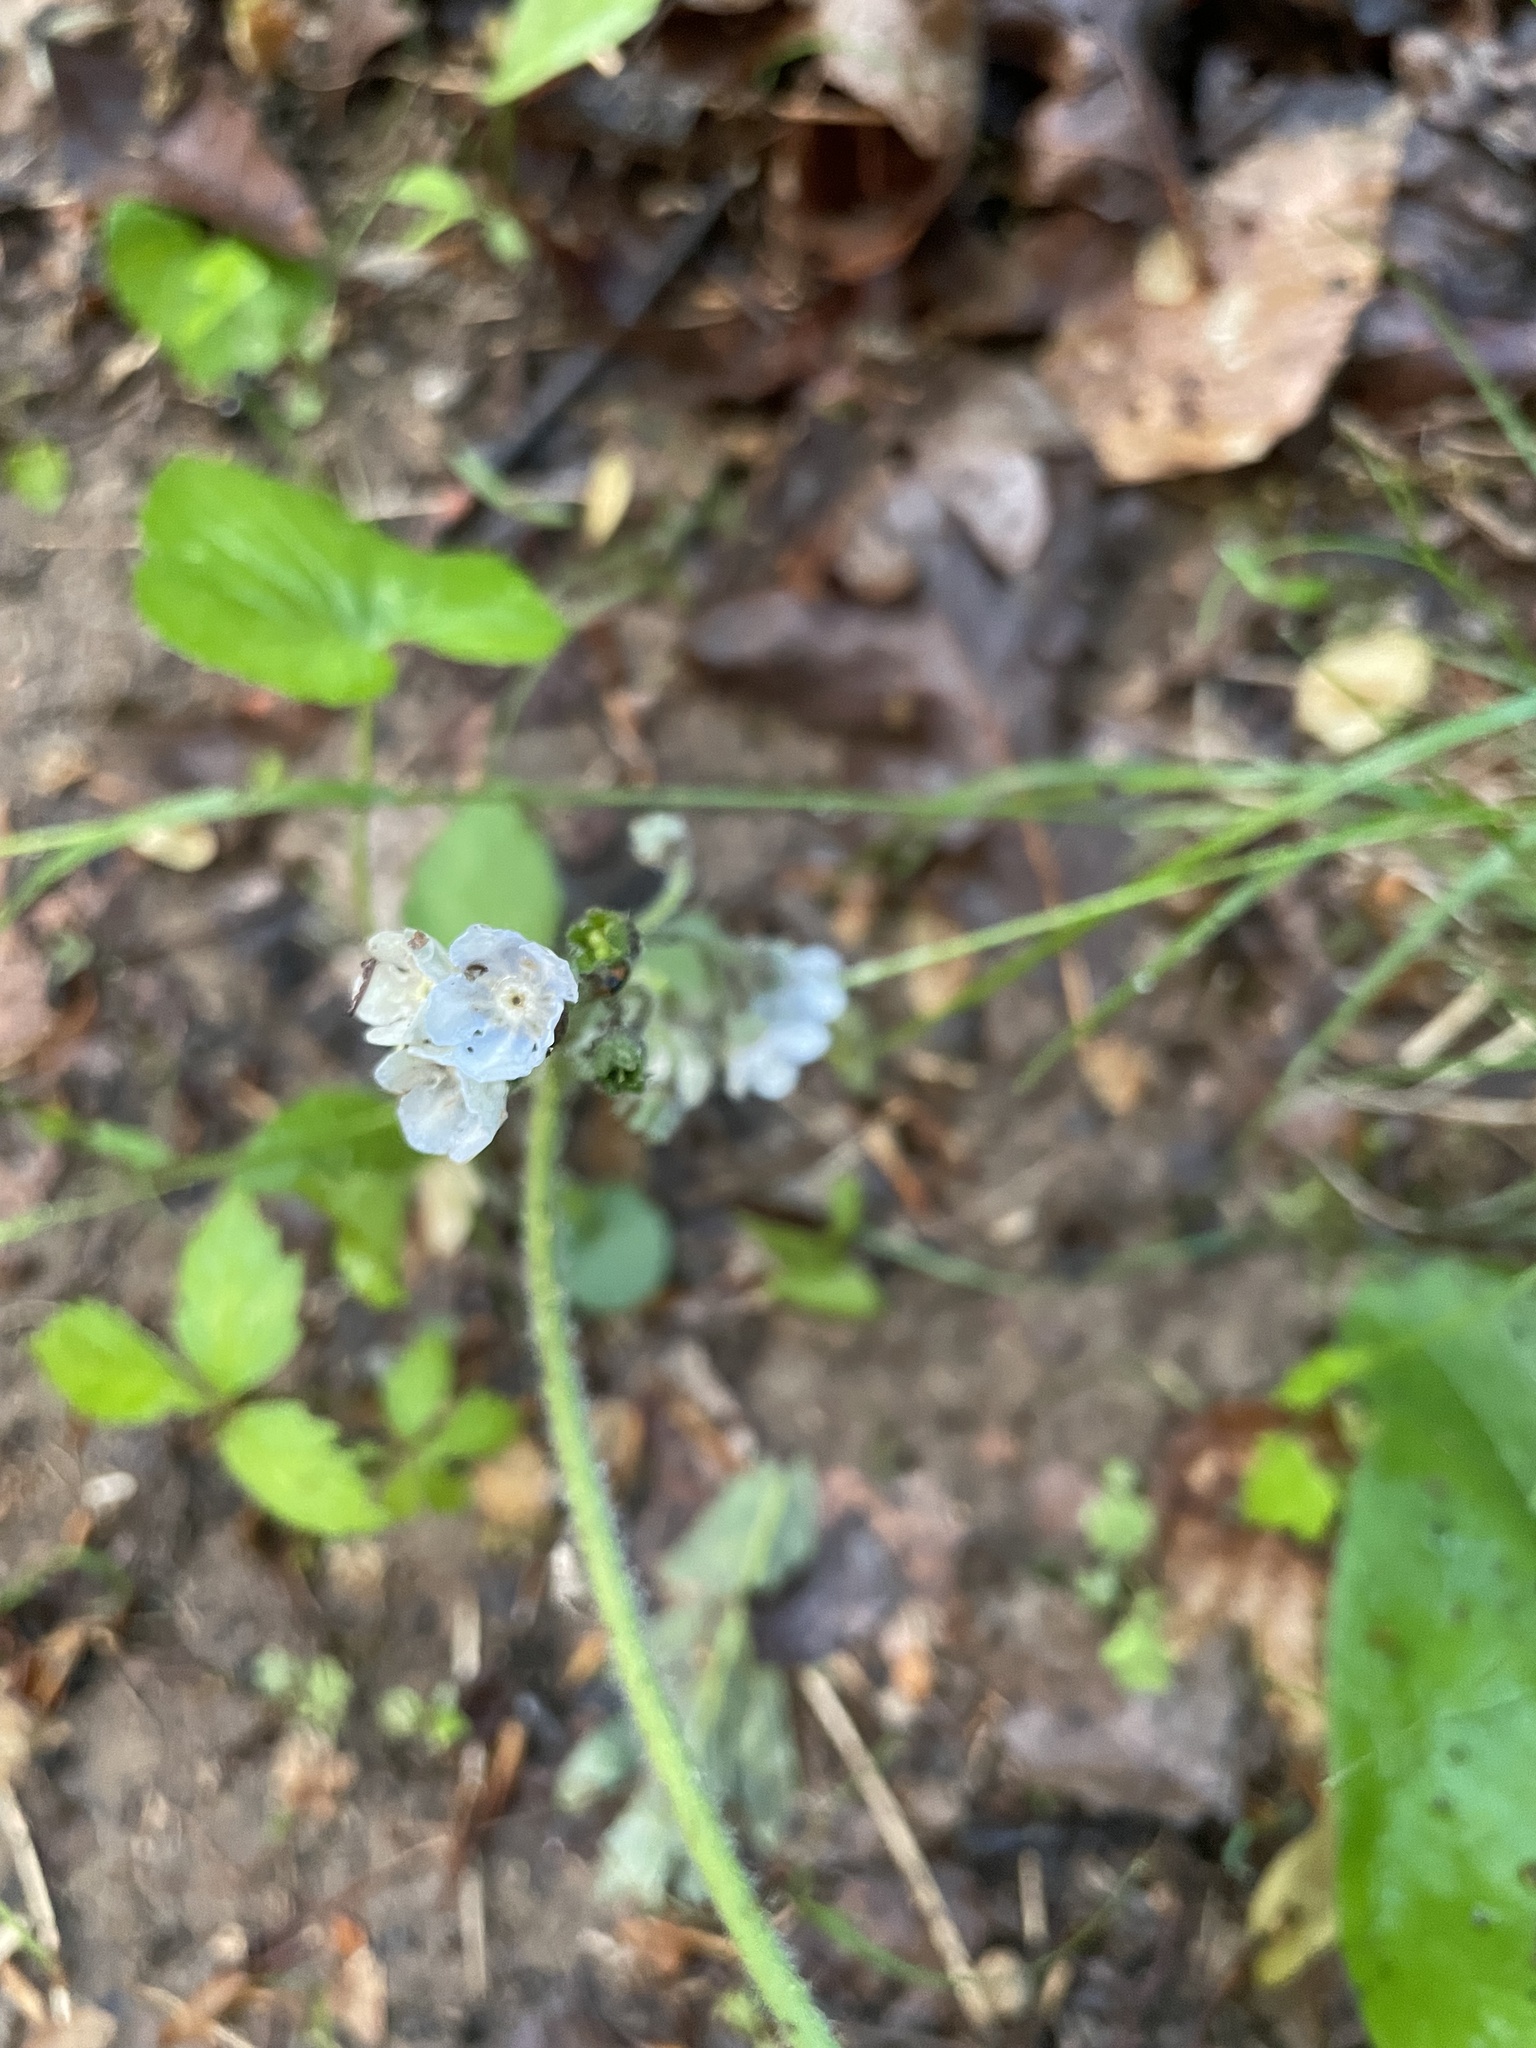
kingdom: Plantae
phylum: Tracheophyta
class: Magnoliopsida
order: Boraginales
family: Boraginaceae
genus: Andersonglossum
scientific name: Andersonglossum virginianum
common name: Wild comfrey
